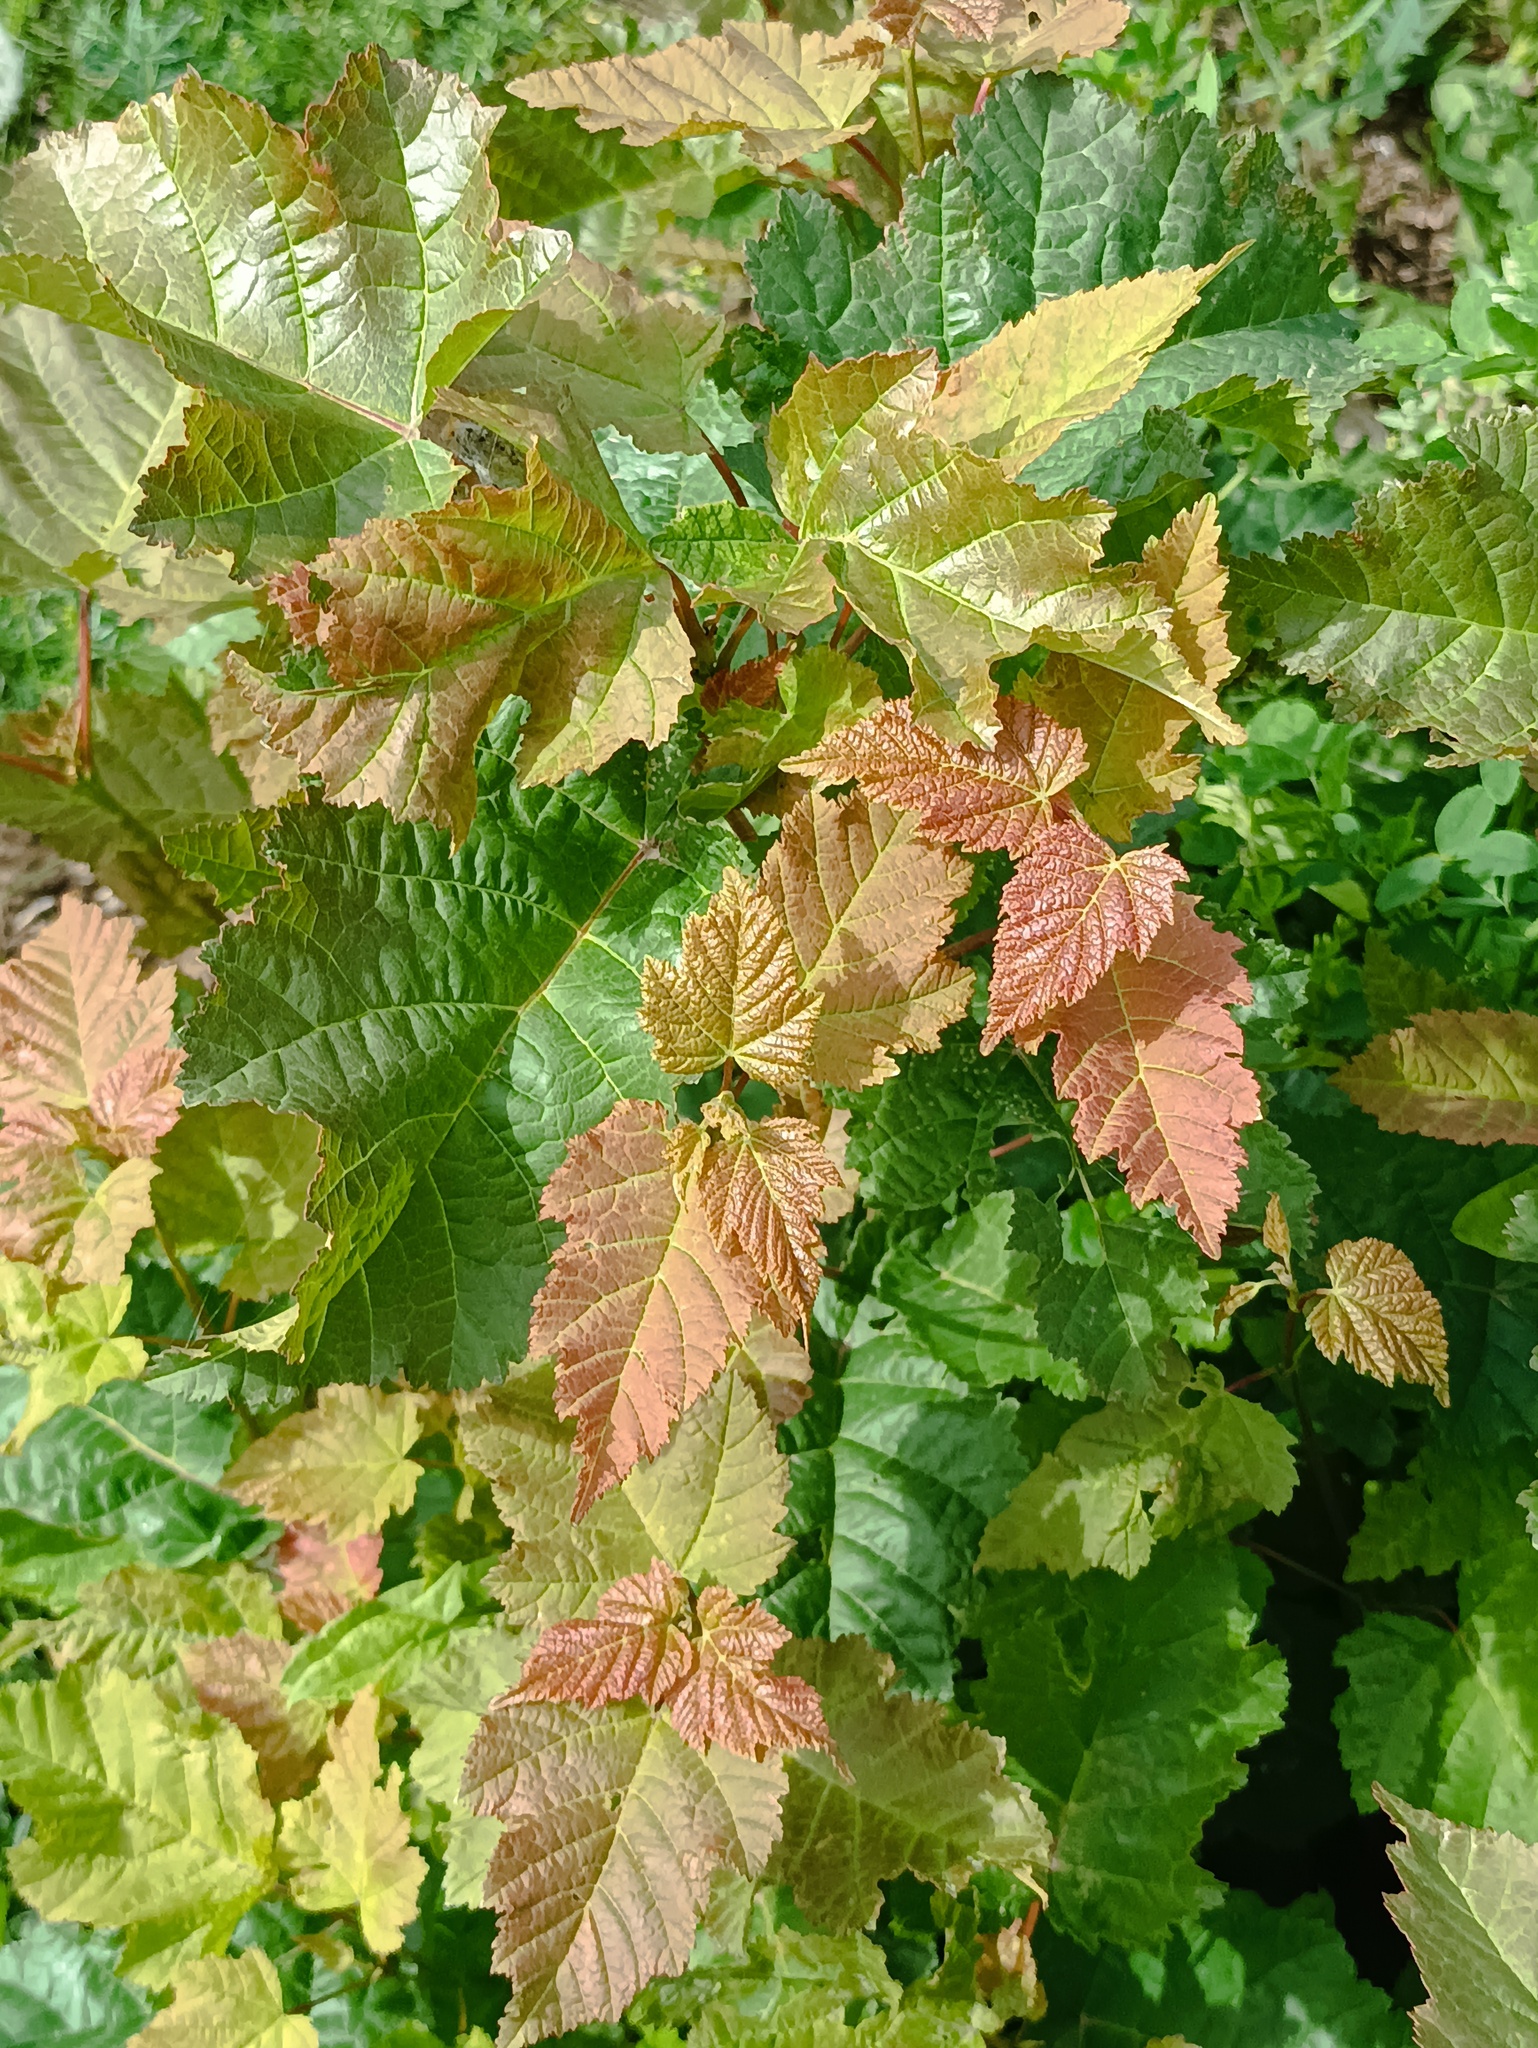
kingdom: Plantae
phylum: Tracheophyta
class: Magnoliopsida
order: Sapindales
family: Sapindaceae
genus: Acer
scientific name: Acer tataricum
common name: Tartar maple
